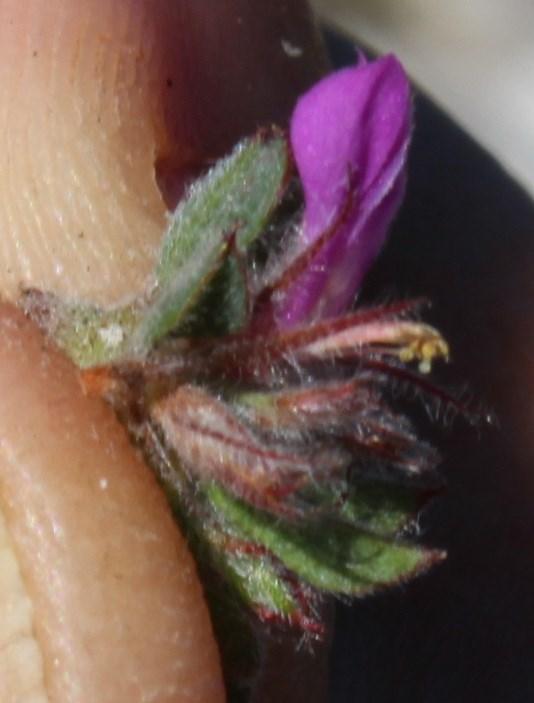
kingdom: Plantae
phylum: Tracheophyta
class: Magnoliopsida
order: Fabales
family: Fabaceae
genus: Indigofera
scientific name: Indigofera glomerata
